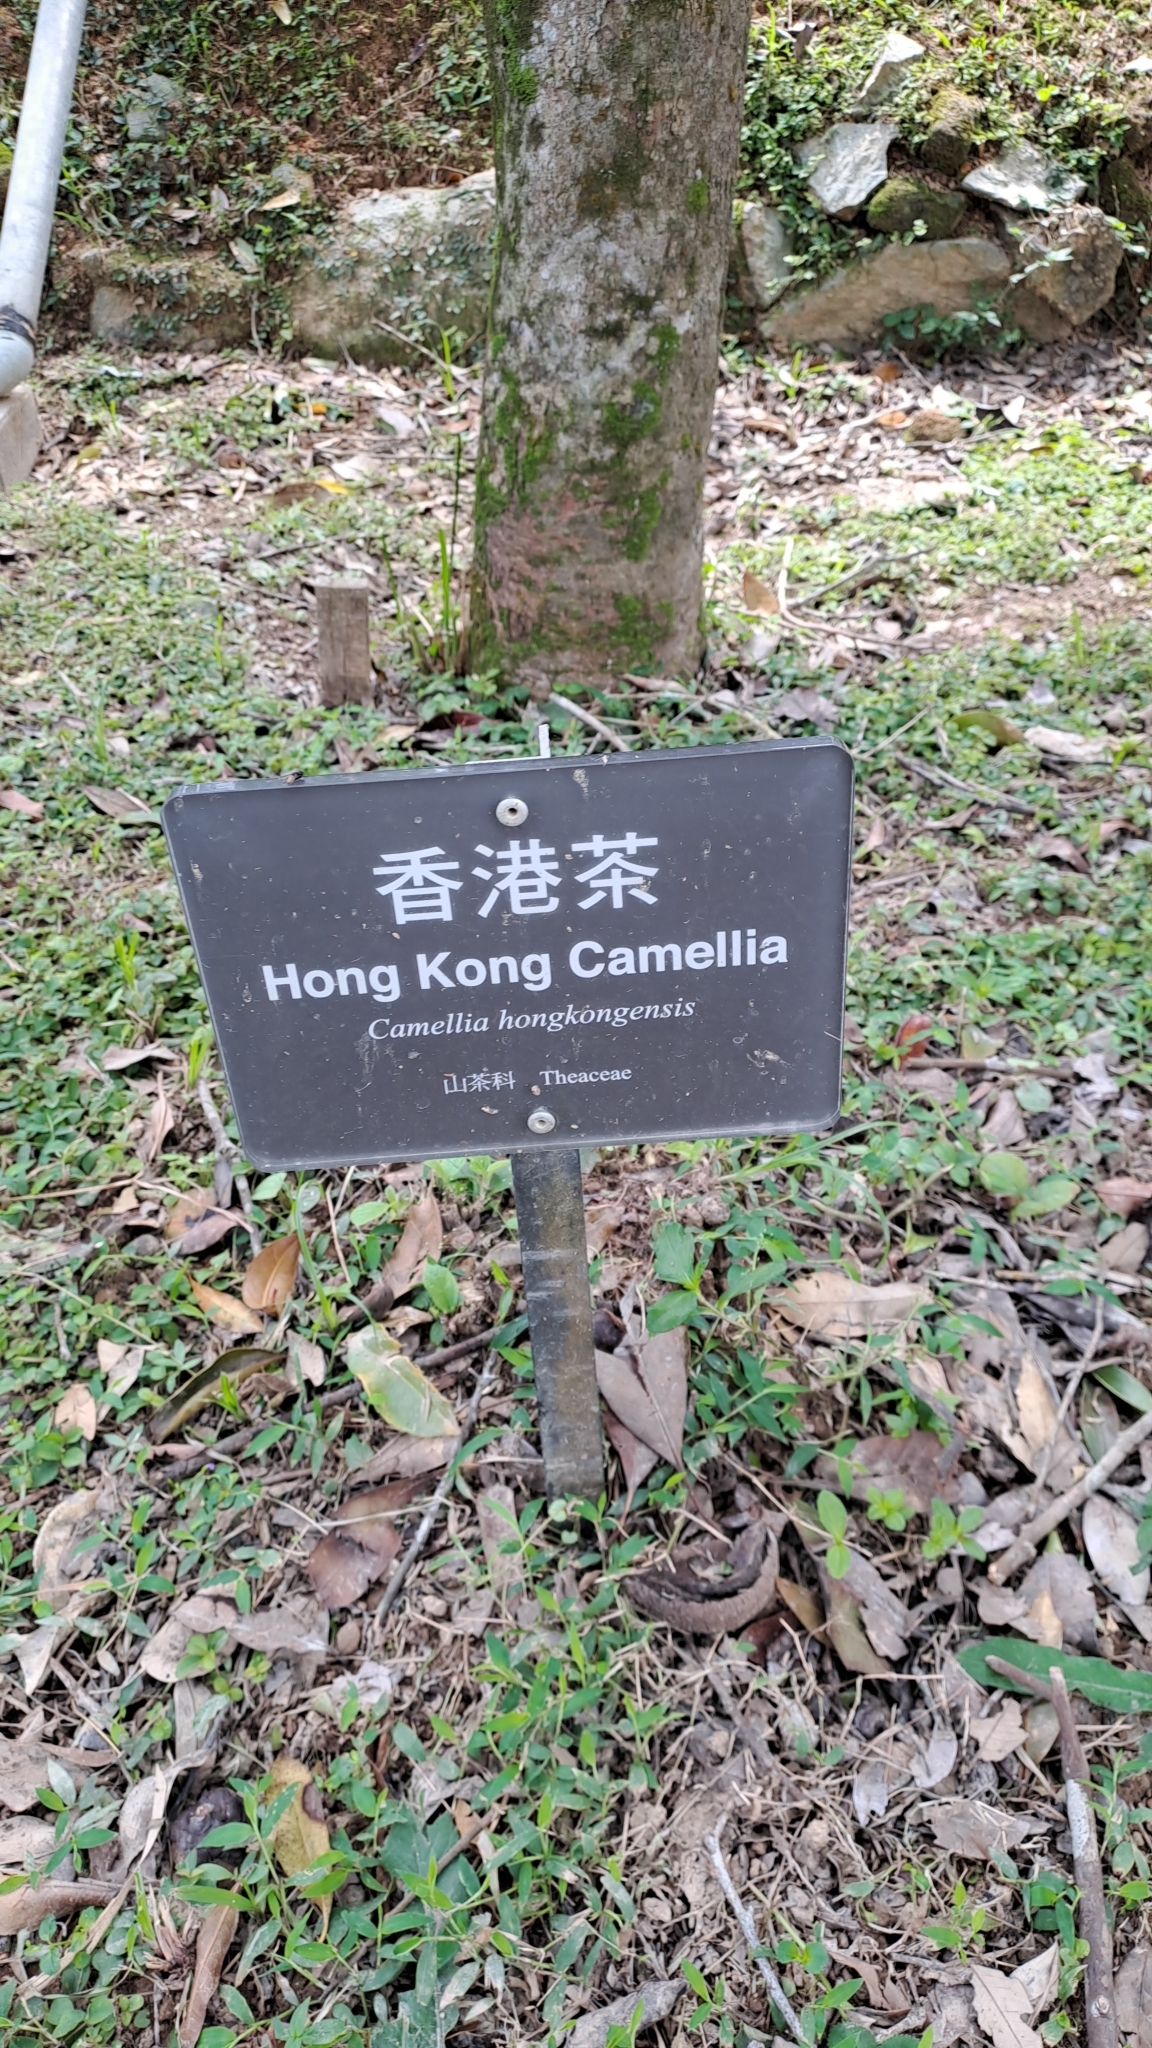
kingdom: Plantae
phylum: Tracheophyta
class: Magnoliopsida
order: Ericales
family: Theaceae
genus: Camellia
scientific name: Camellia hongkongensis
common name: Hong kong camellia
